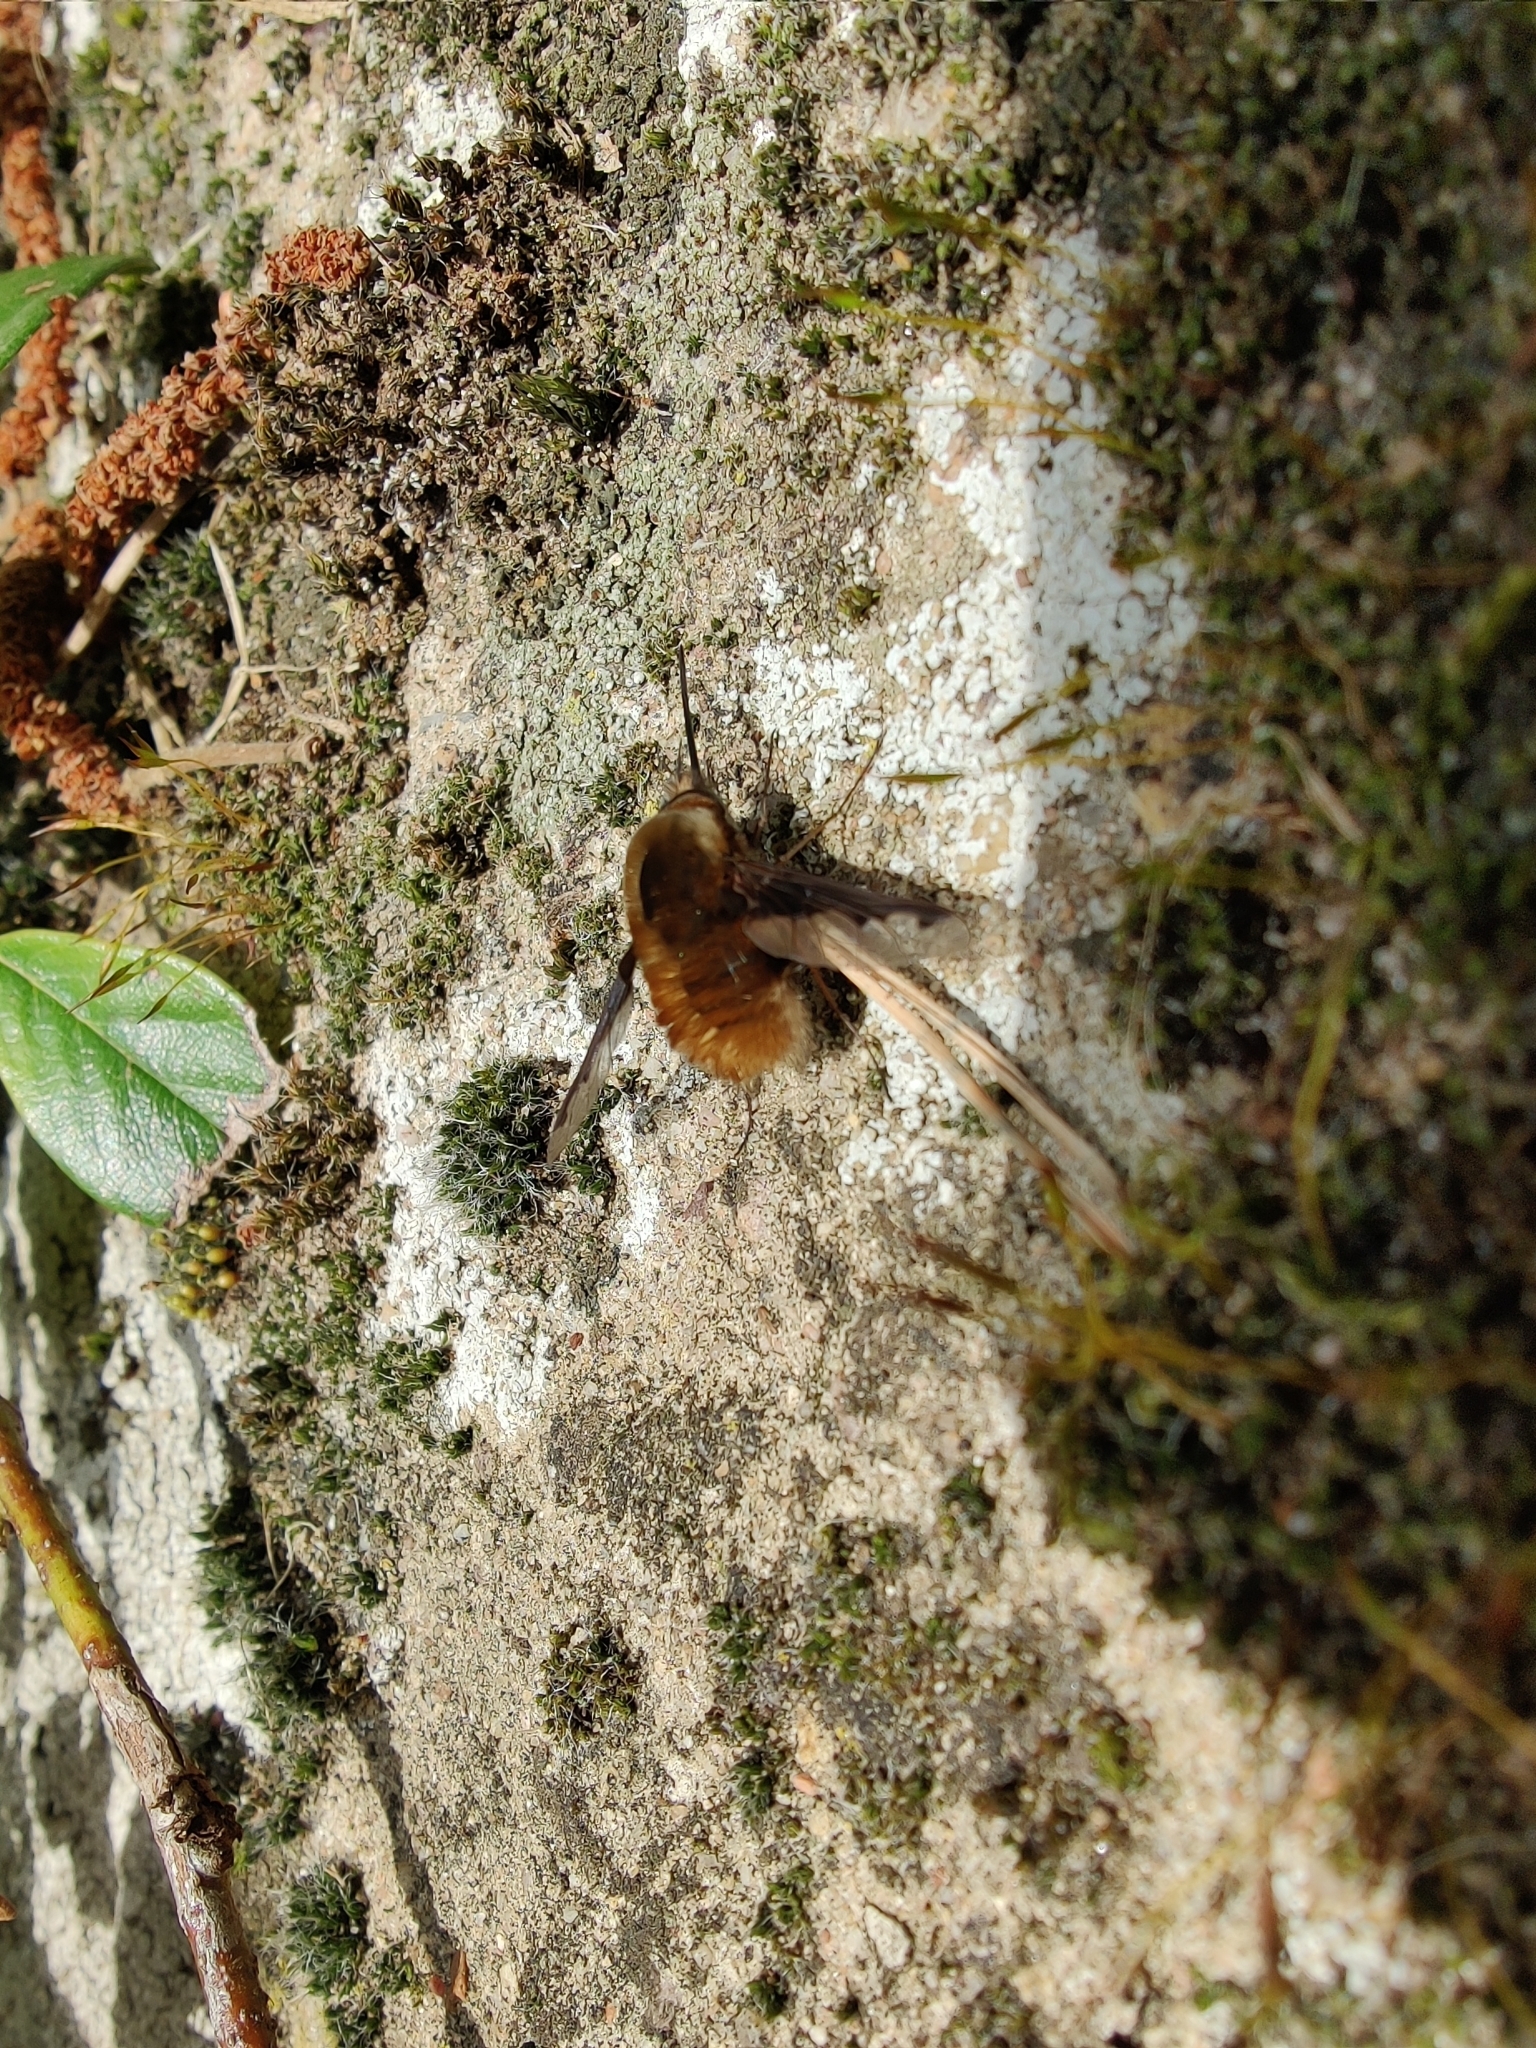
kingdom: Animalia
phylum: Arthropoda
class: Insecta
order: Diptera
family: Bombyliidae
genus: Bombylius
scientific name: Bombylius major
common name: Bee fly
